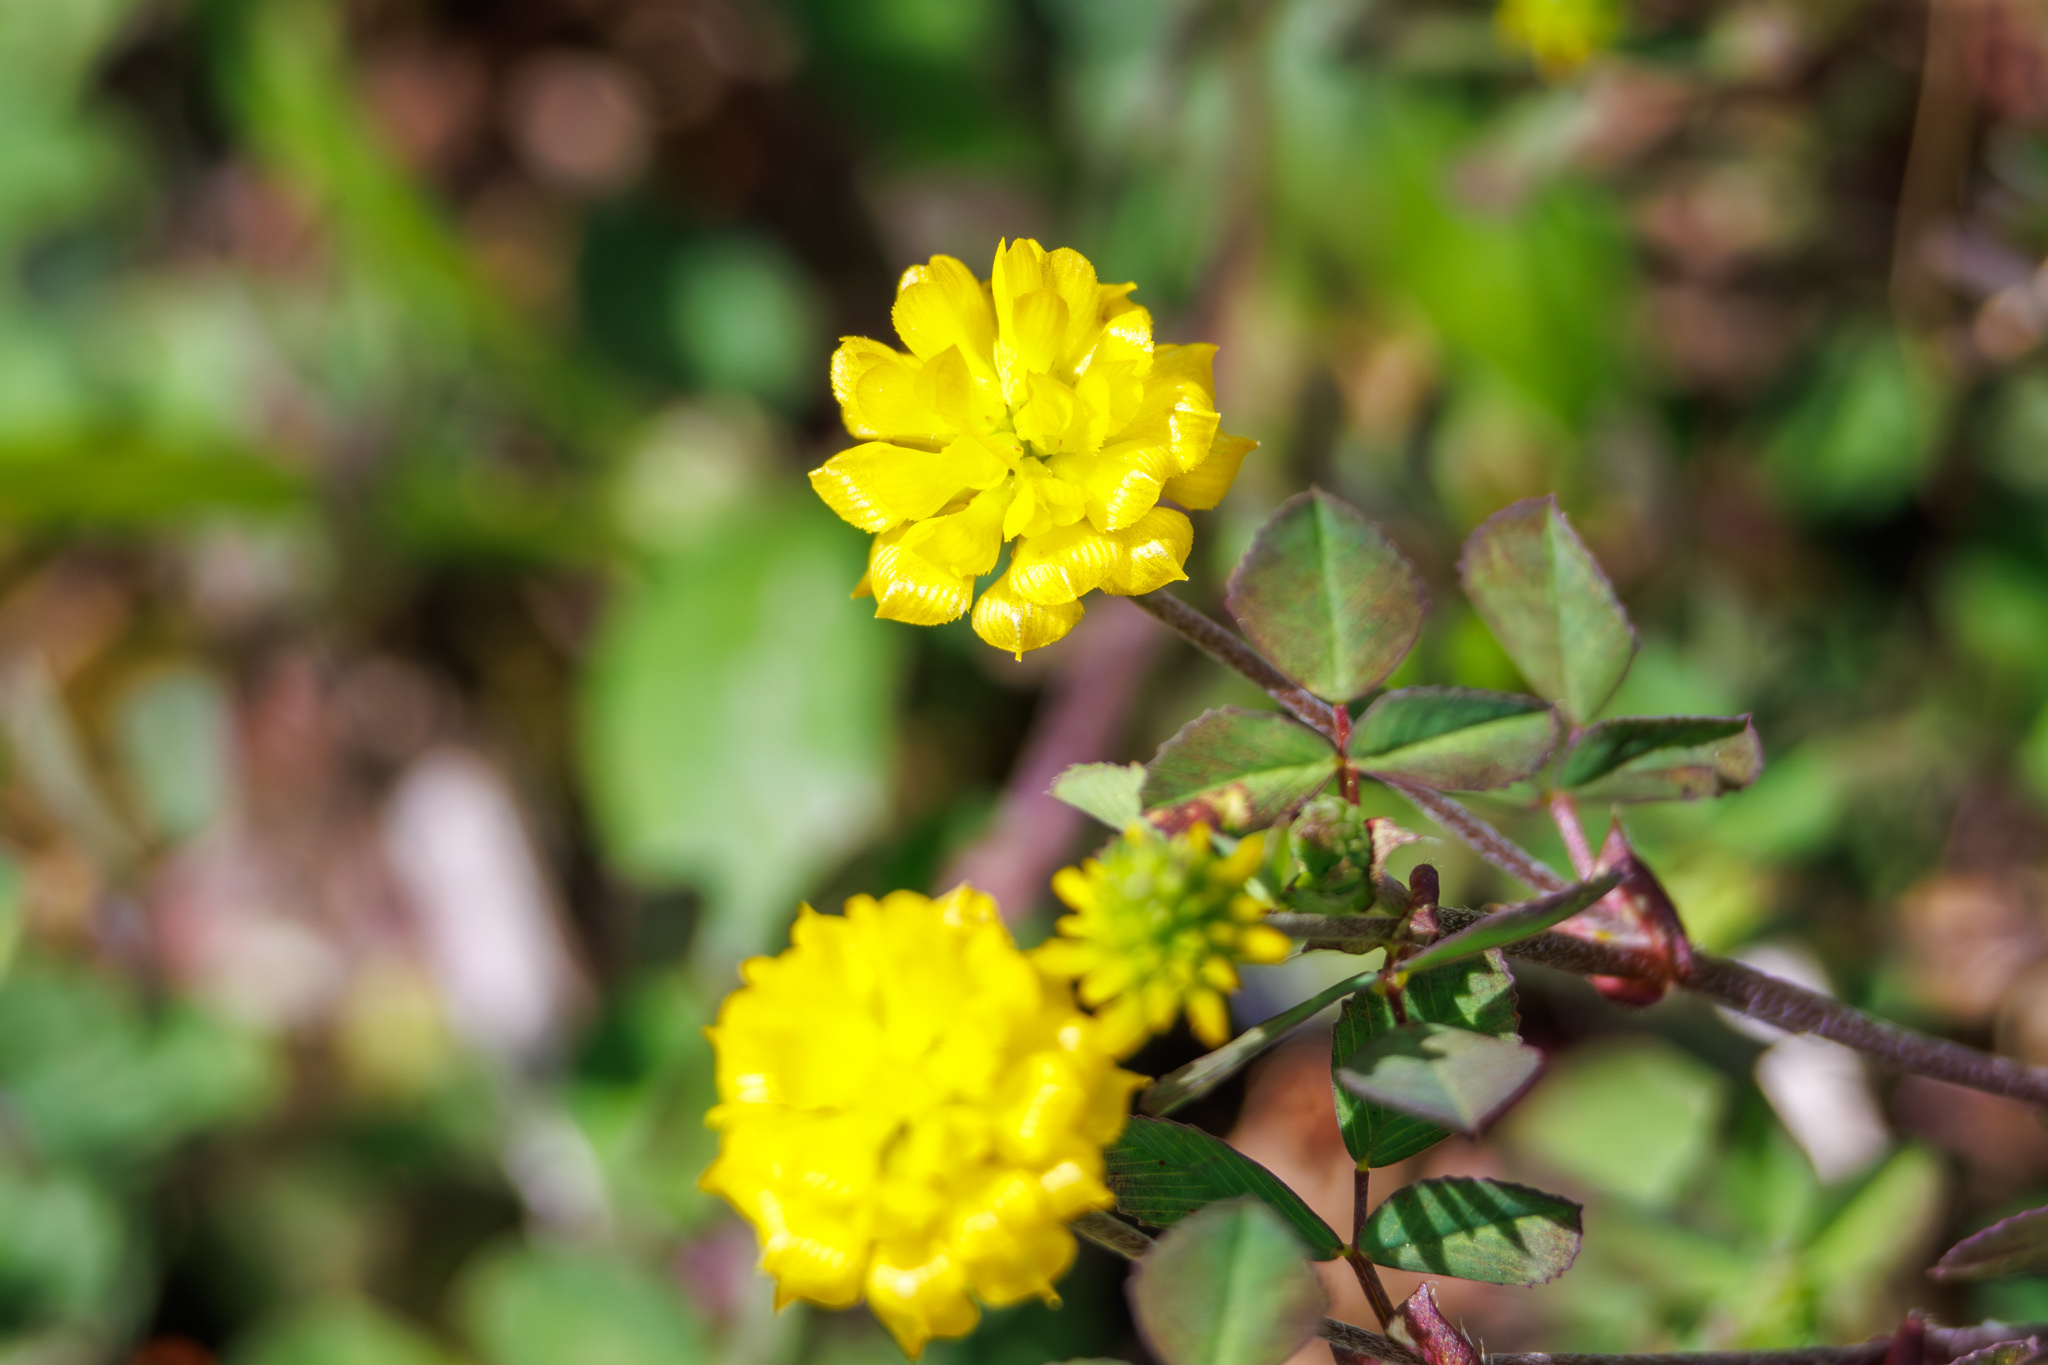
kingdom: Plantae
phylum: Tracheophyta
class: Magnoliopsida
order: Fabales
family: Fabaceae
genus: Trifolium
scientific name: Trifolium campestre
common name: Field clover
